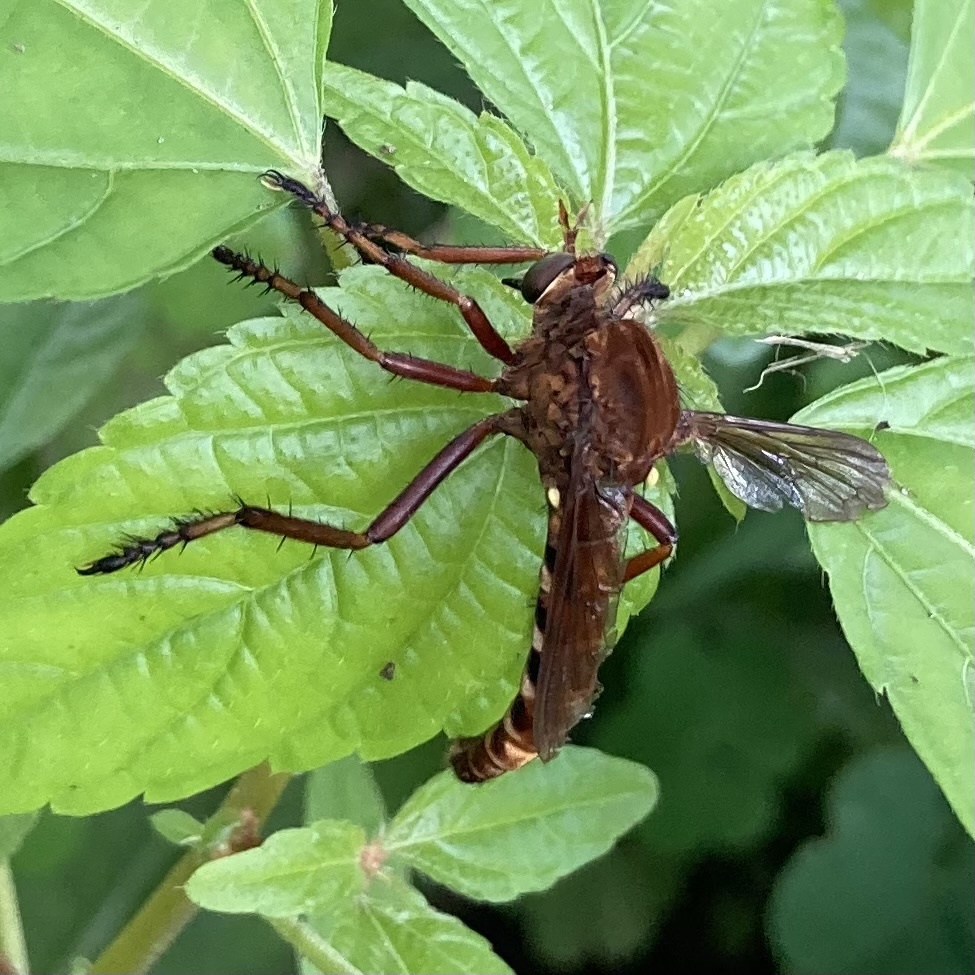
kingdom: Animalia
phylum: Arthropoda
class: Insecta
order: Diptera
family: Asilidae
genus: Diogmites
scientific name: Diogmites basalis
